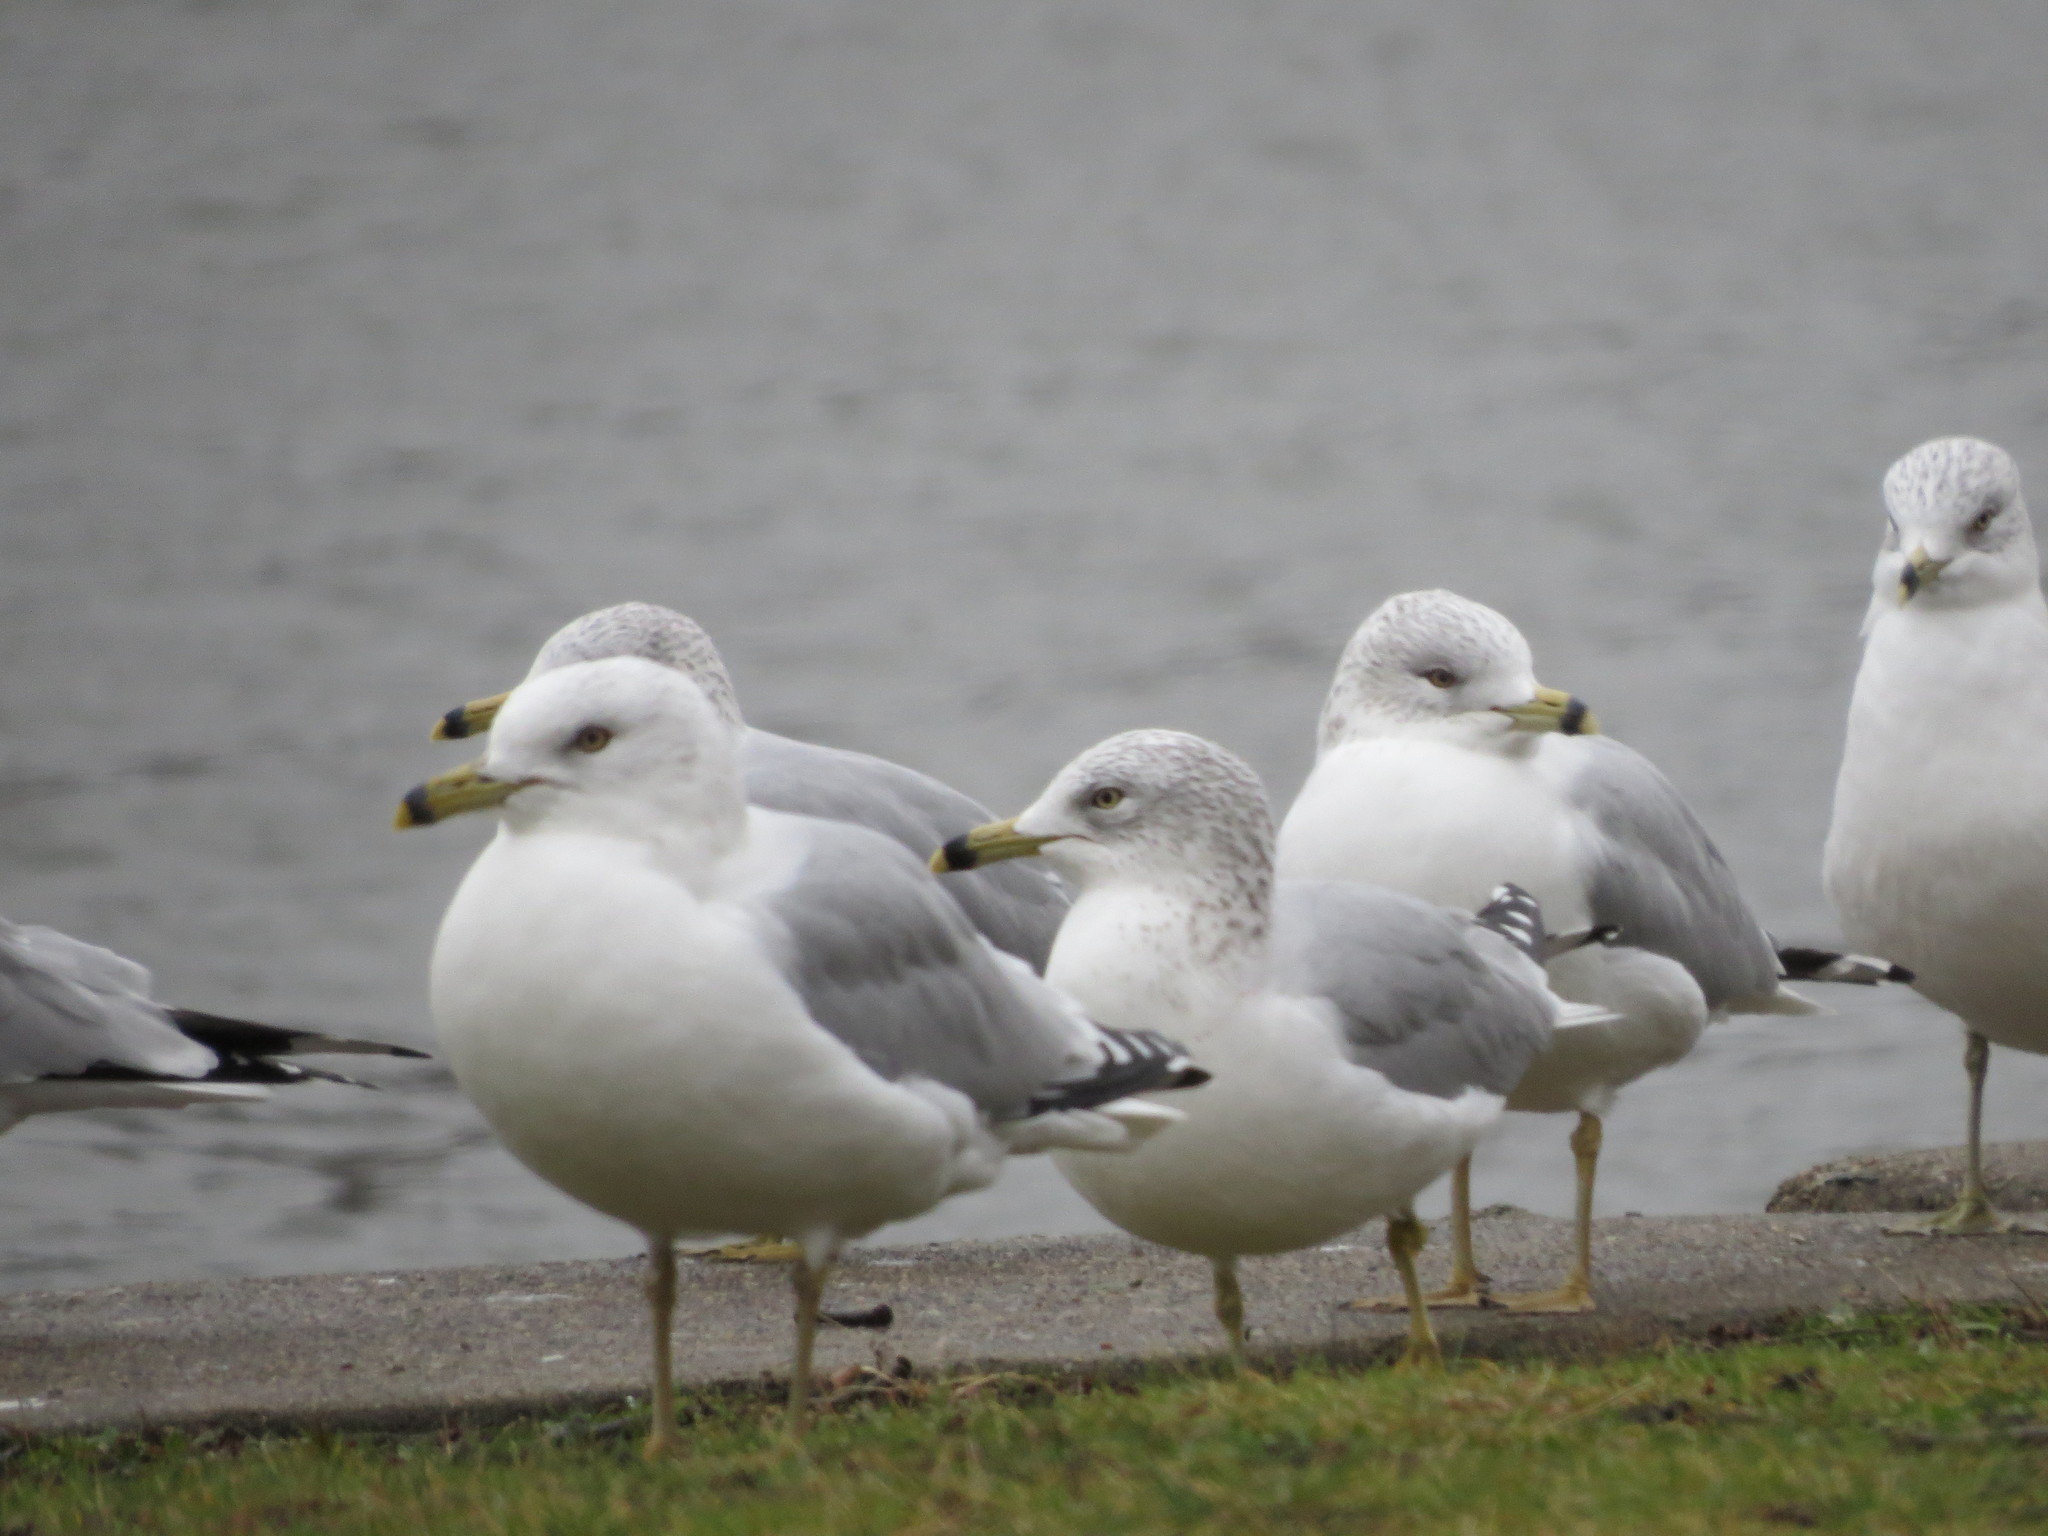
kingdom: Animalia
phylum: Chordata
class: Aves
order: Charadriiformes
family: Laridae
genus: Larus
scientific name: Larus delawarensis
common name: Ring-billed gull
